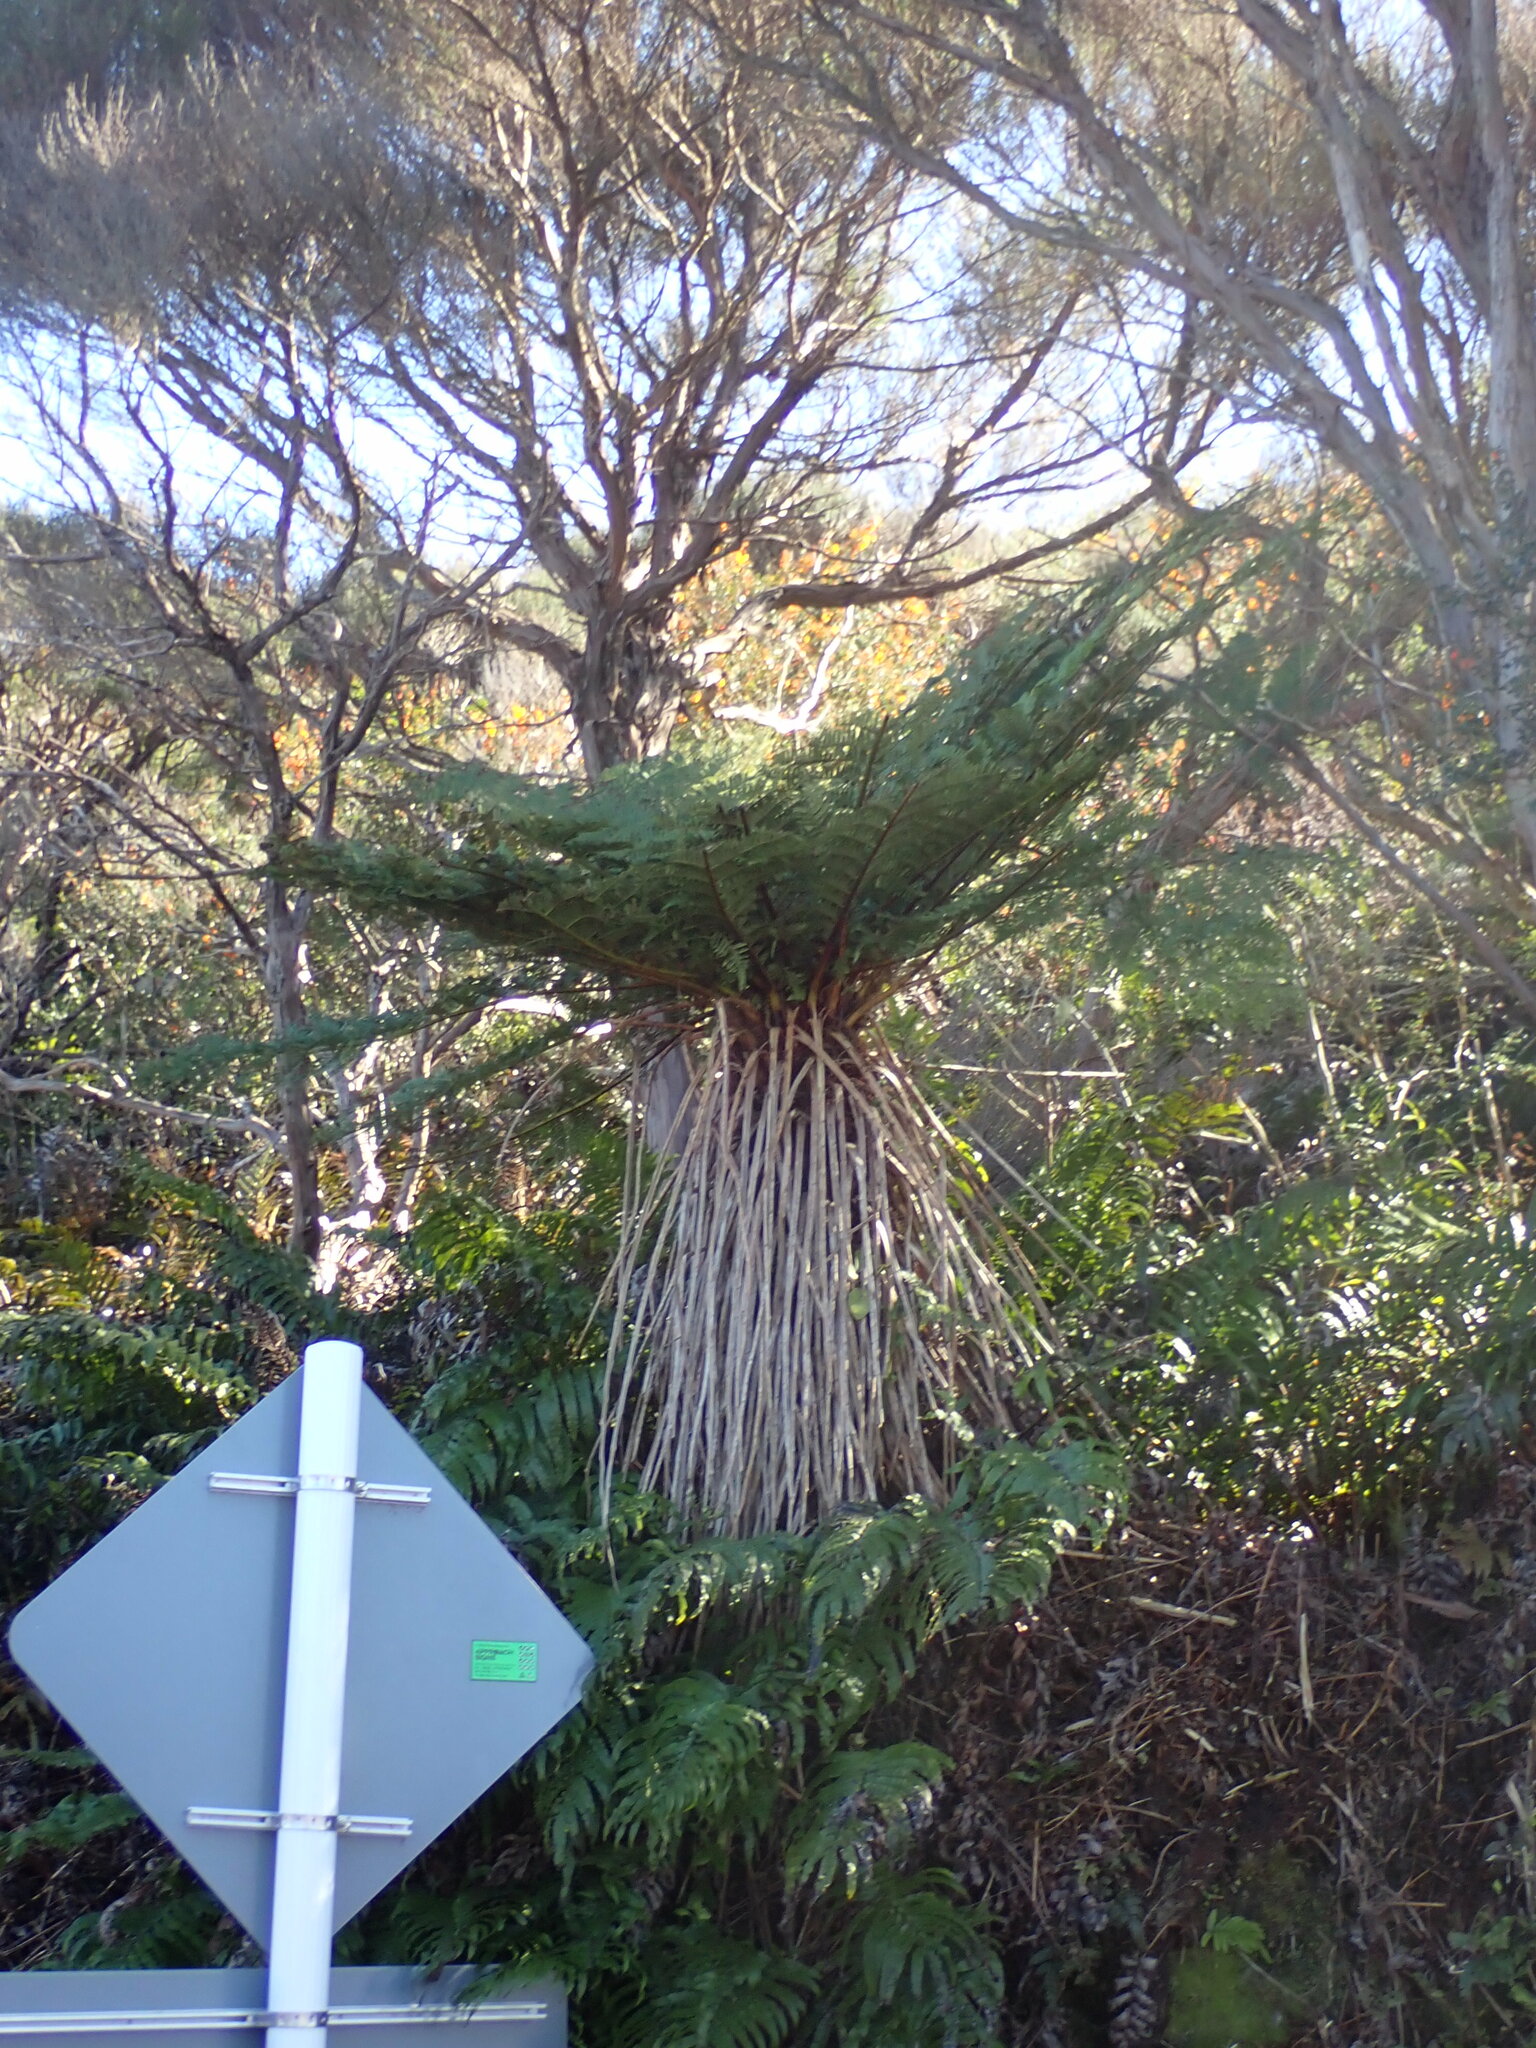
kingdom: Plantae
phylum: Tracheophyta
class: Polypodiopsida
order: Cyatheales
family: Cyatheaceae
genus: Alsophila
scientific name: Alsophila smithii
